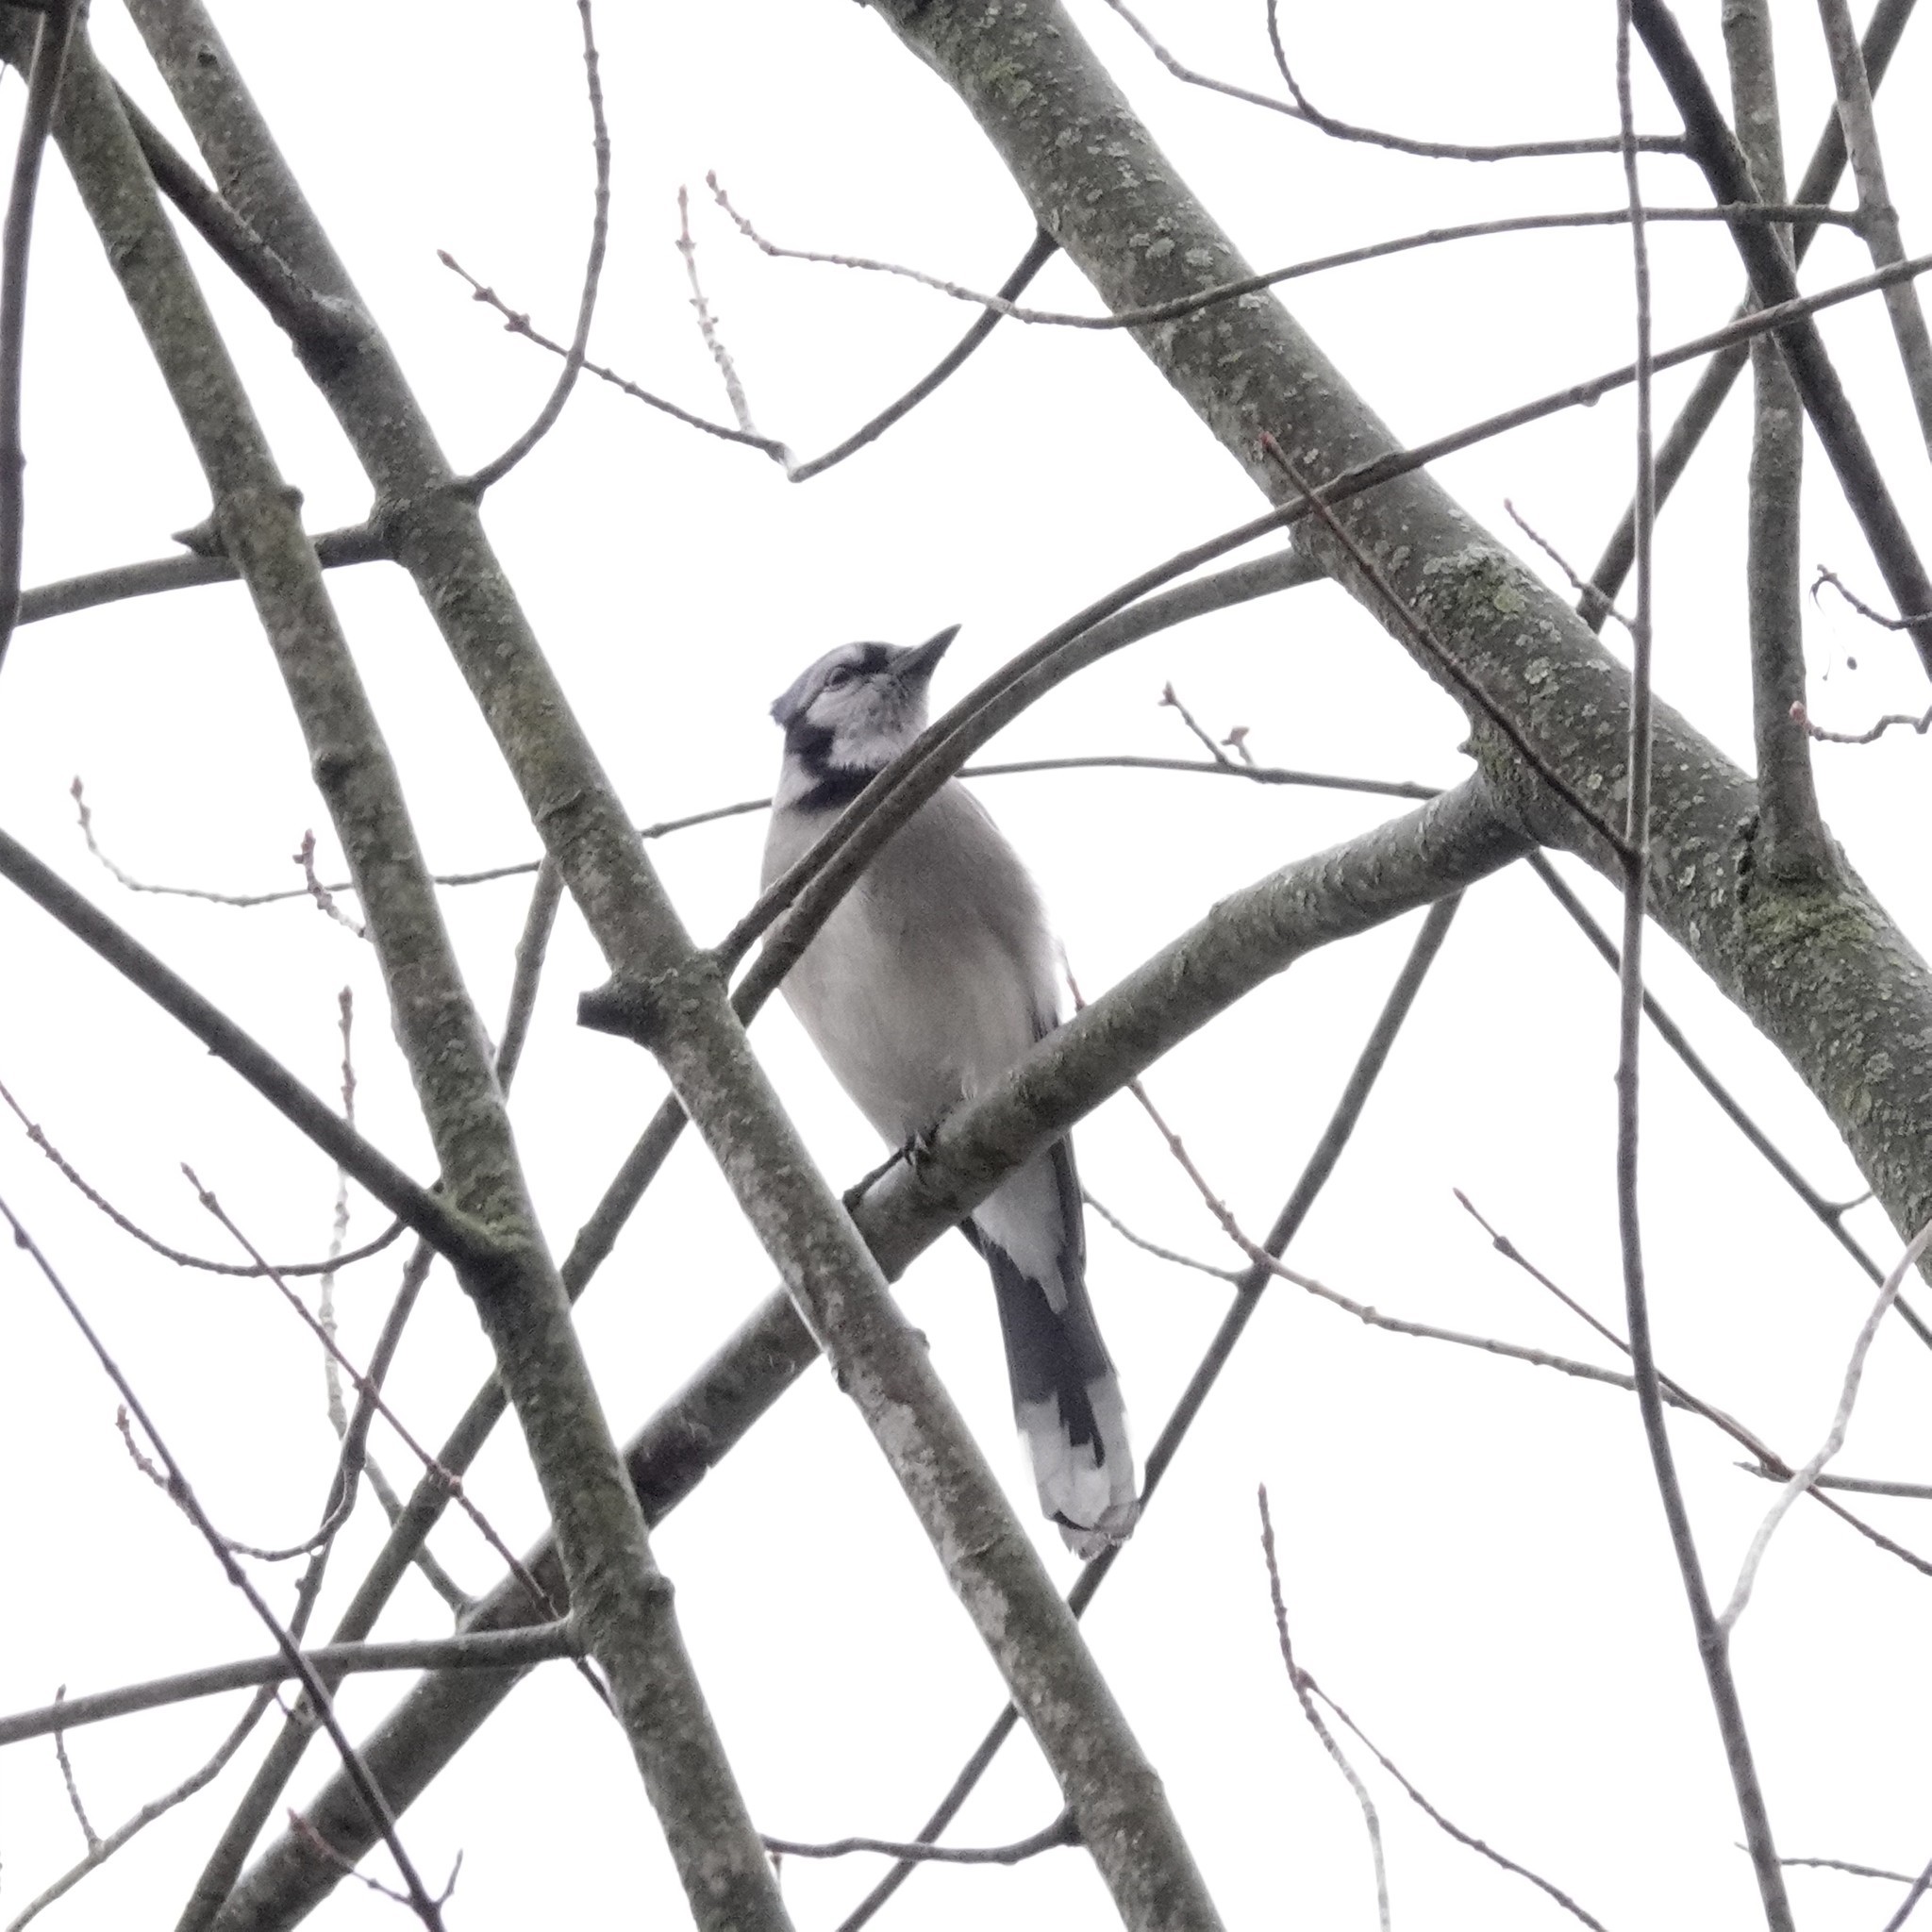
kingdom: Animalia
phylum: Chordata
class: Aves
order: Passeriformes
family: Corvidae
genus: Cyanocitta
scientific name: Cyanocitta cristata
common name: Blue jay
